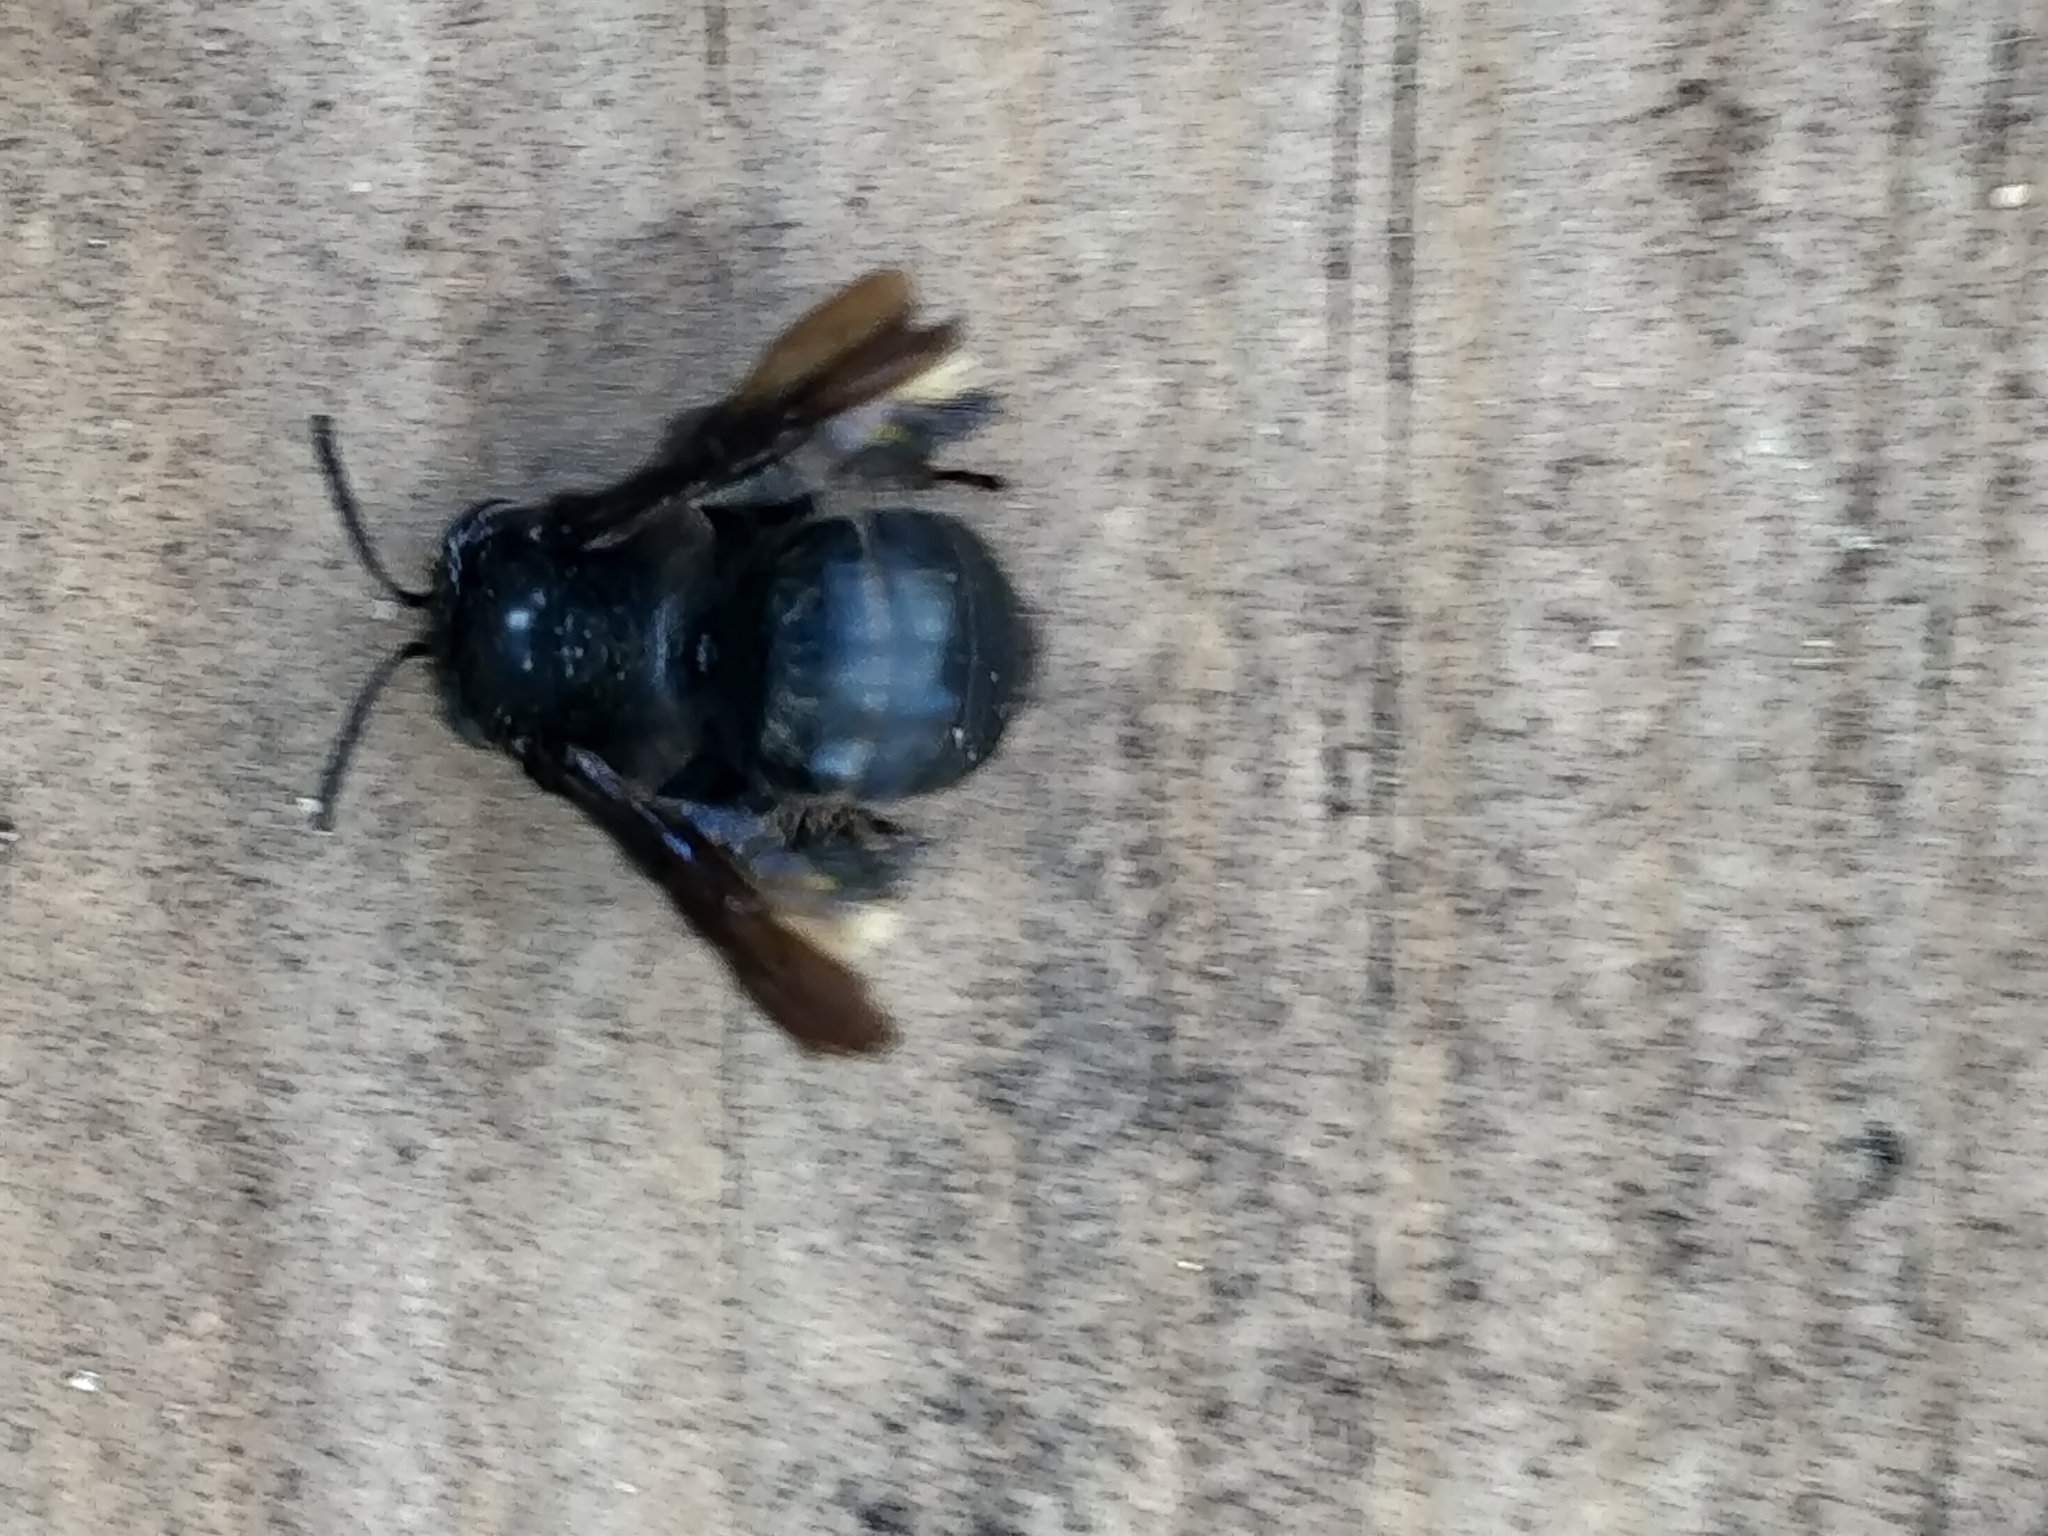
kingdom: Animalia
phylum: Arthropoda
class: Insecta
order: Hymenoptera
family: Apidae
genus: Melissodes
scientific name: Melissodes bimaculatus
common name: Two-spotted long-horned bee
